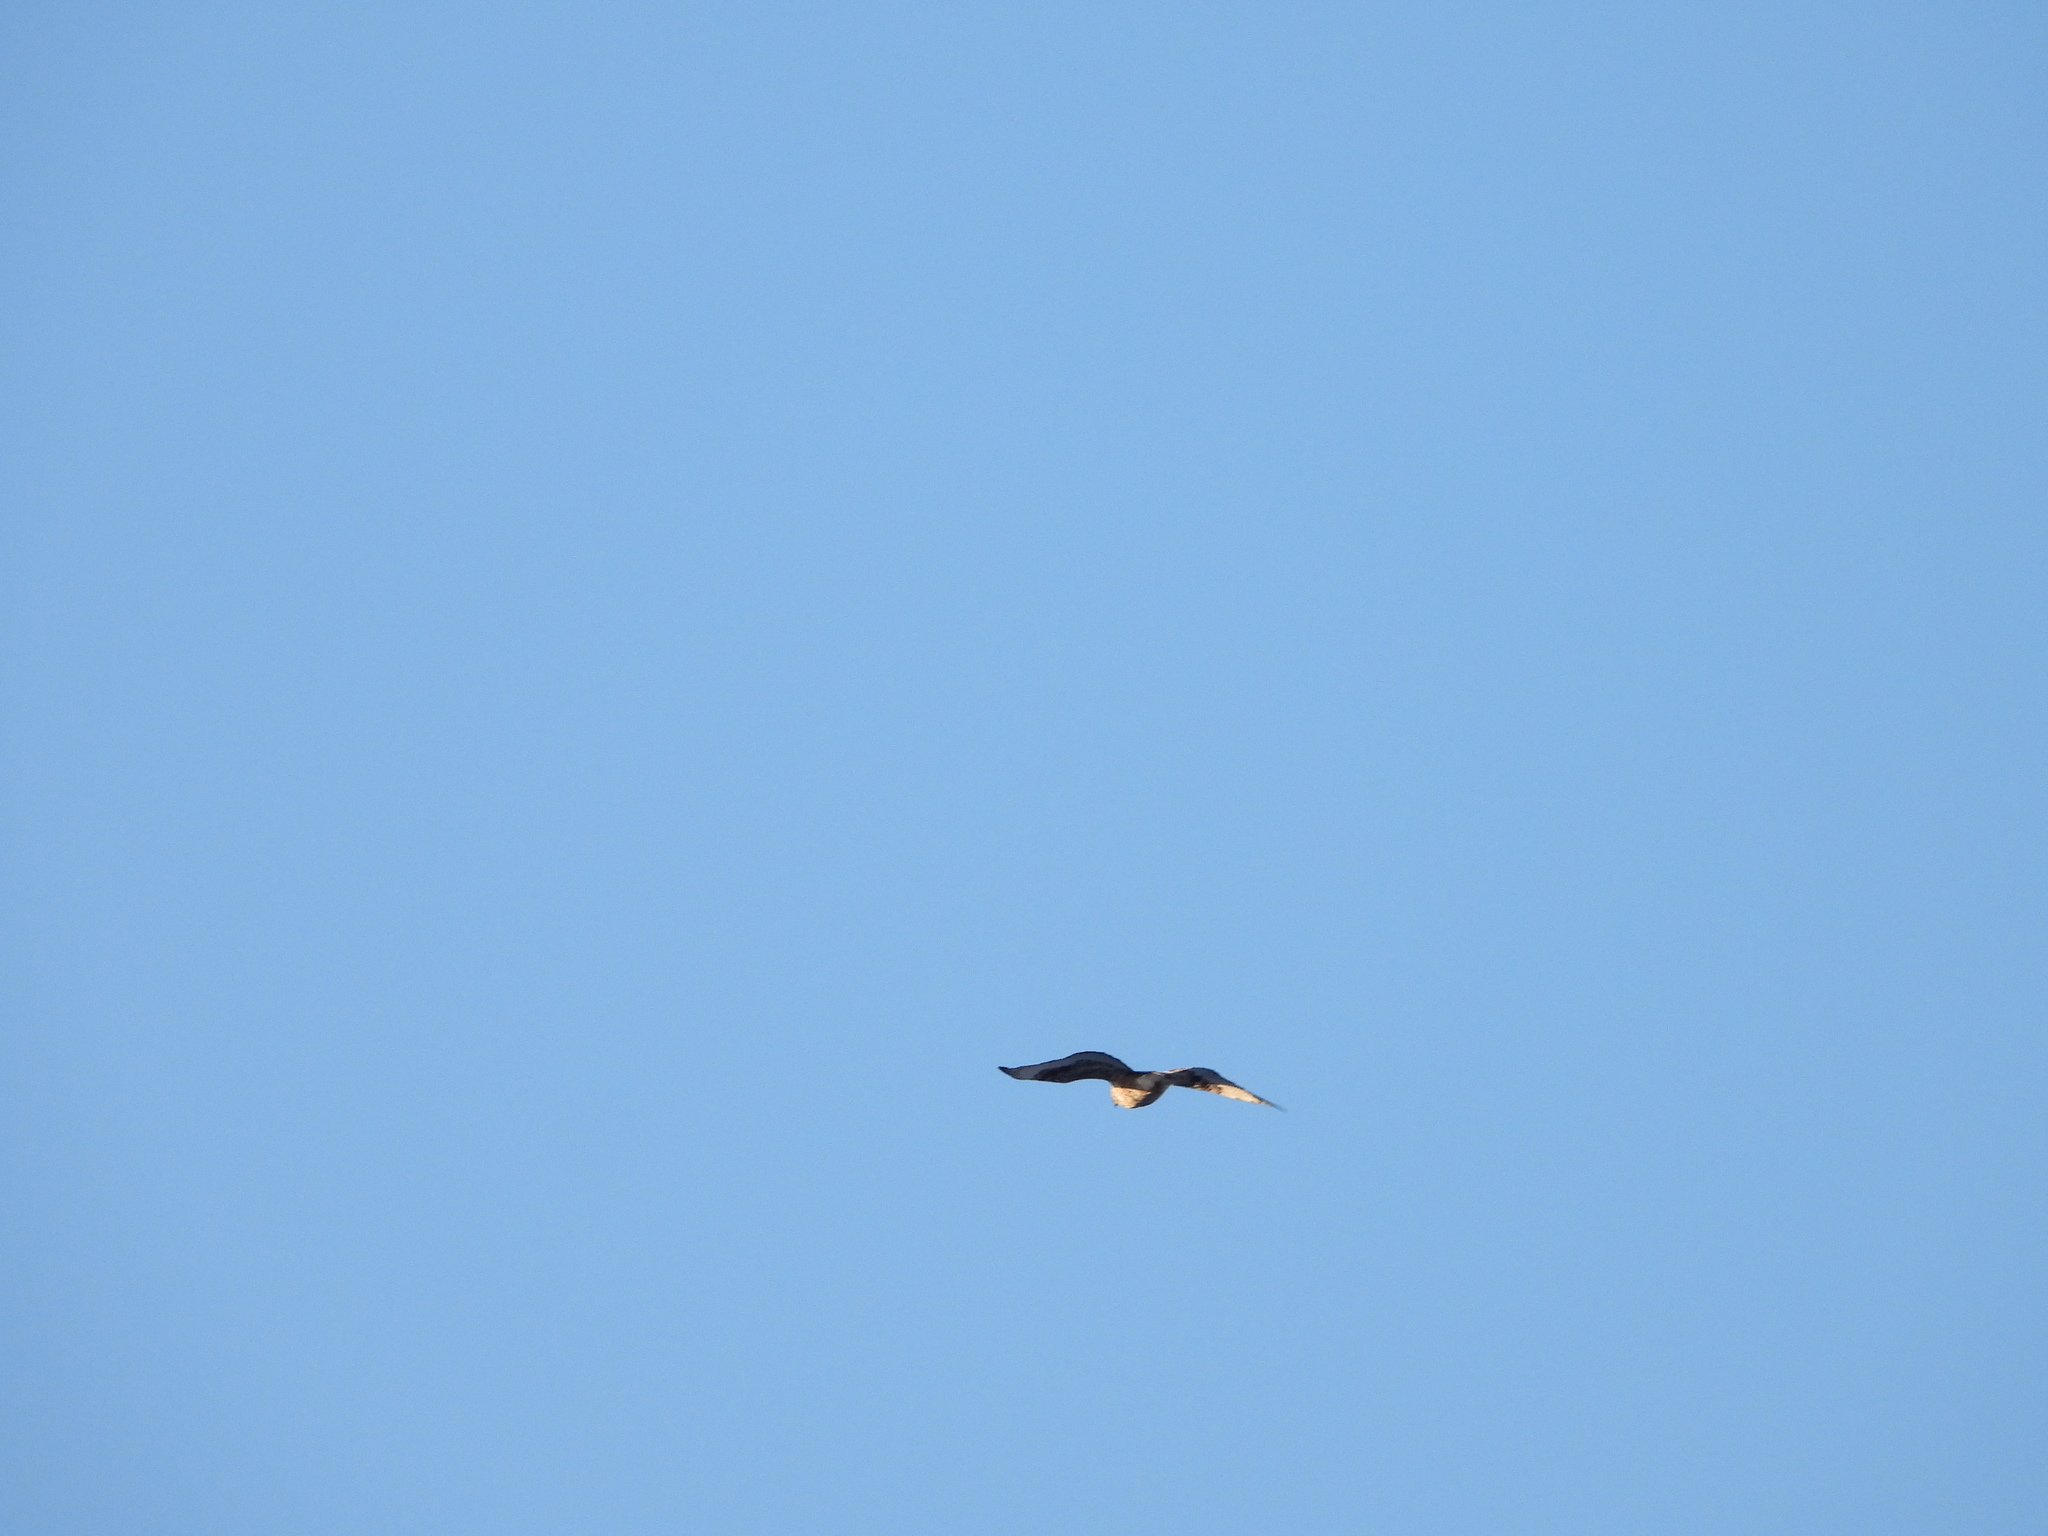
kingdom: Animalia
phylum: Chordata
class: Aves
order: Accipitriformes
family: Accipitridae
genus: Buteo
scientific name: Buteo lagopus
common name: Rough-legged buzzard
